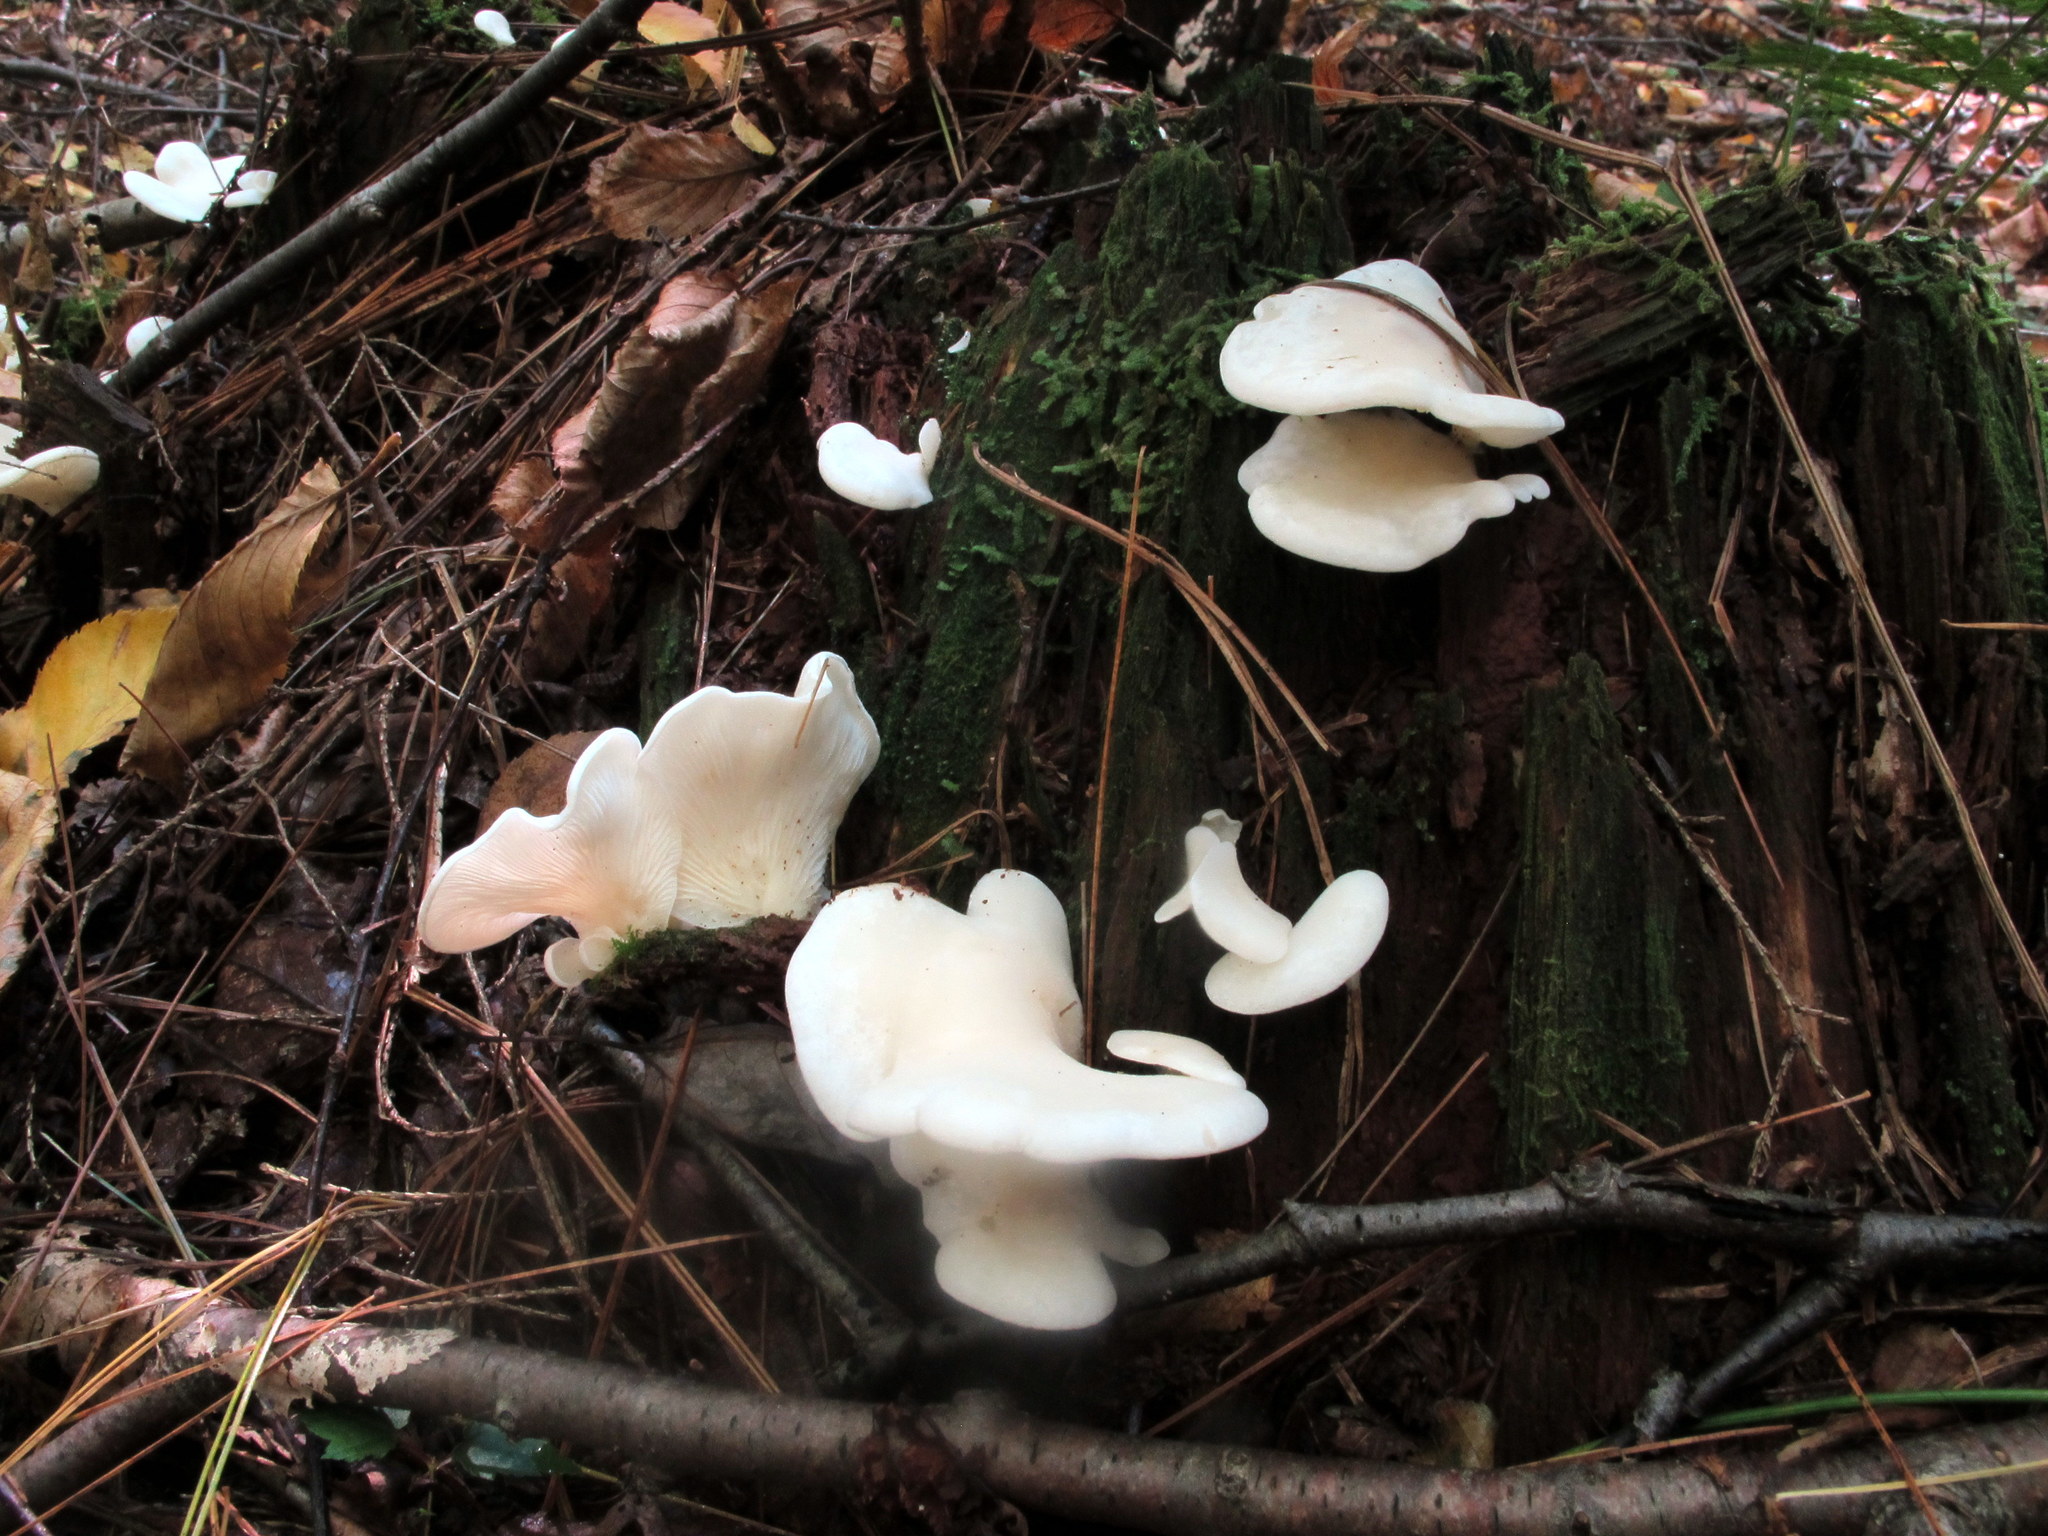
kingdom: Fungi
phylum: Basidiomycota
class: Agaricomycetes
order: Agaricales
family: Marasmiaceae
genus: Pleurocybella
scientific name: Pleurocybella porrigens
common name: Angel's wings
